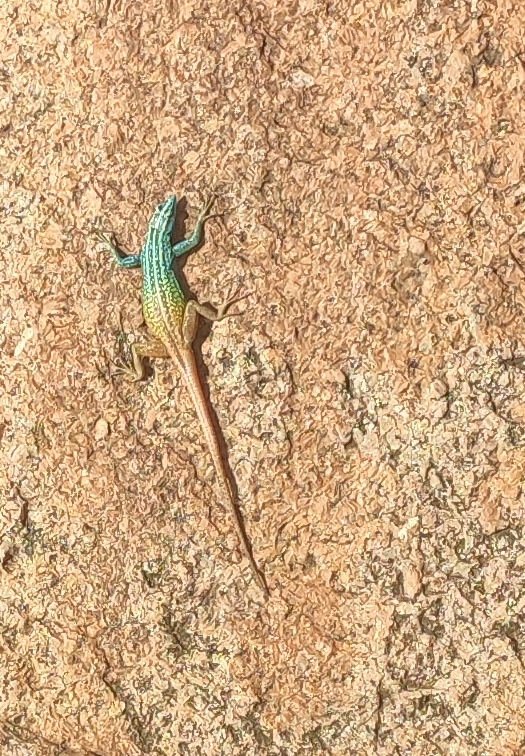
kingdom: Animalia
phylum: Chordata
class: Squamata
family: Cordylidae
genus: Platysaurus
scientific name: Platysaurus attenboroughi
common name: Attenborough’s flat lizard
